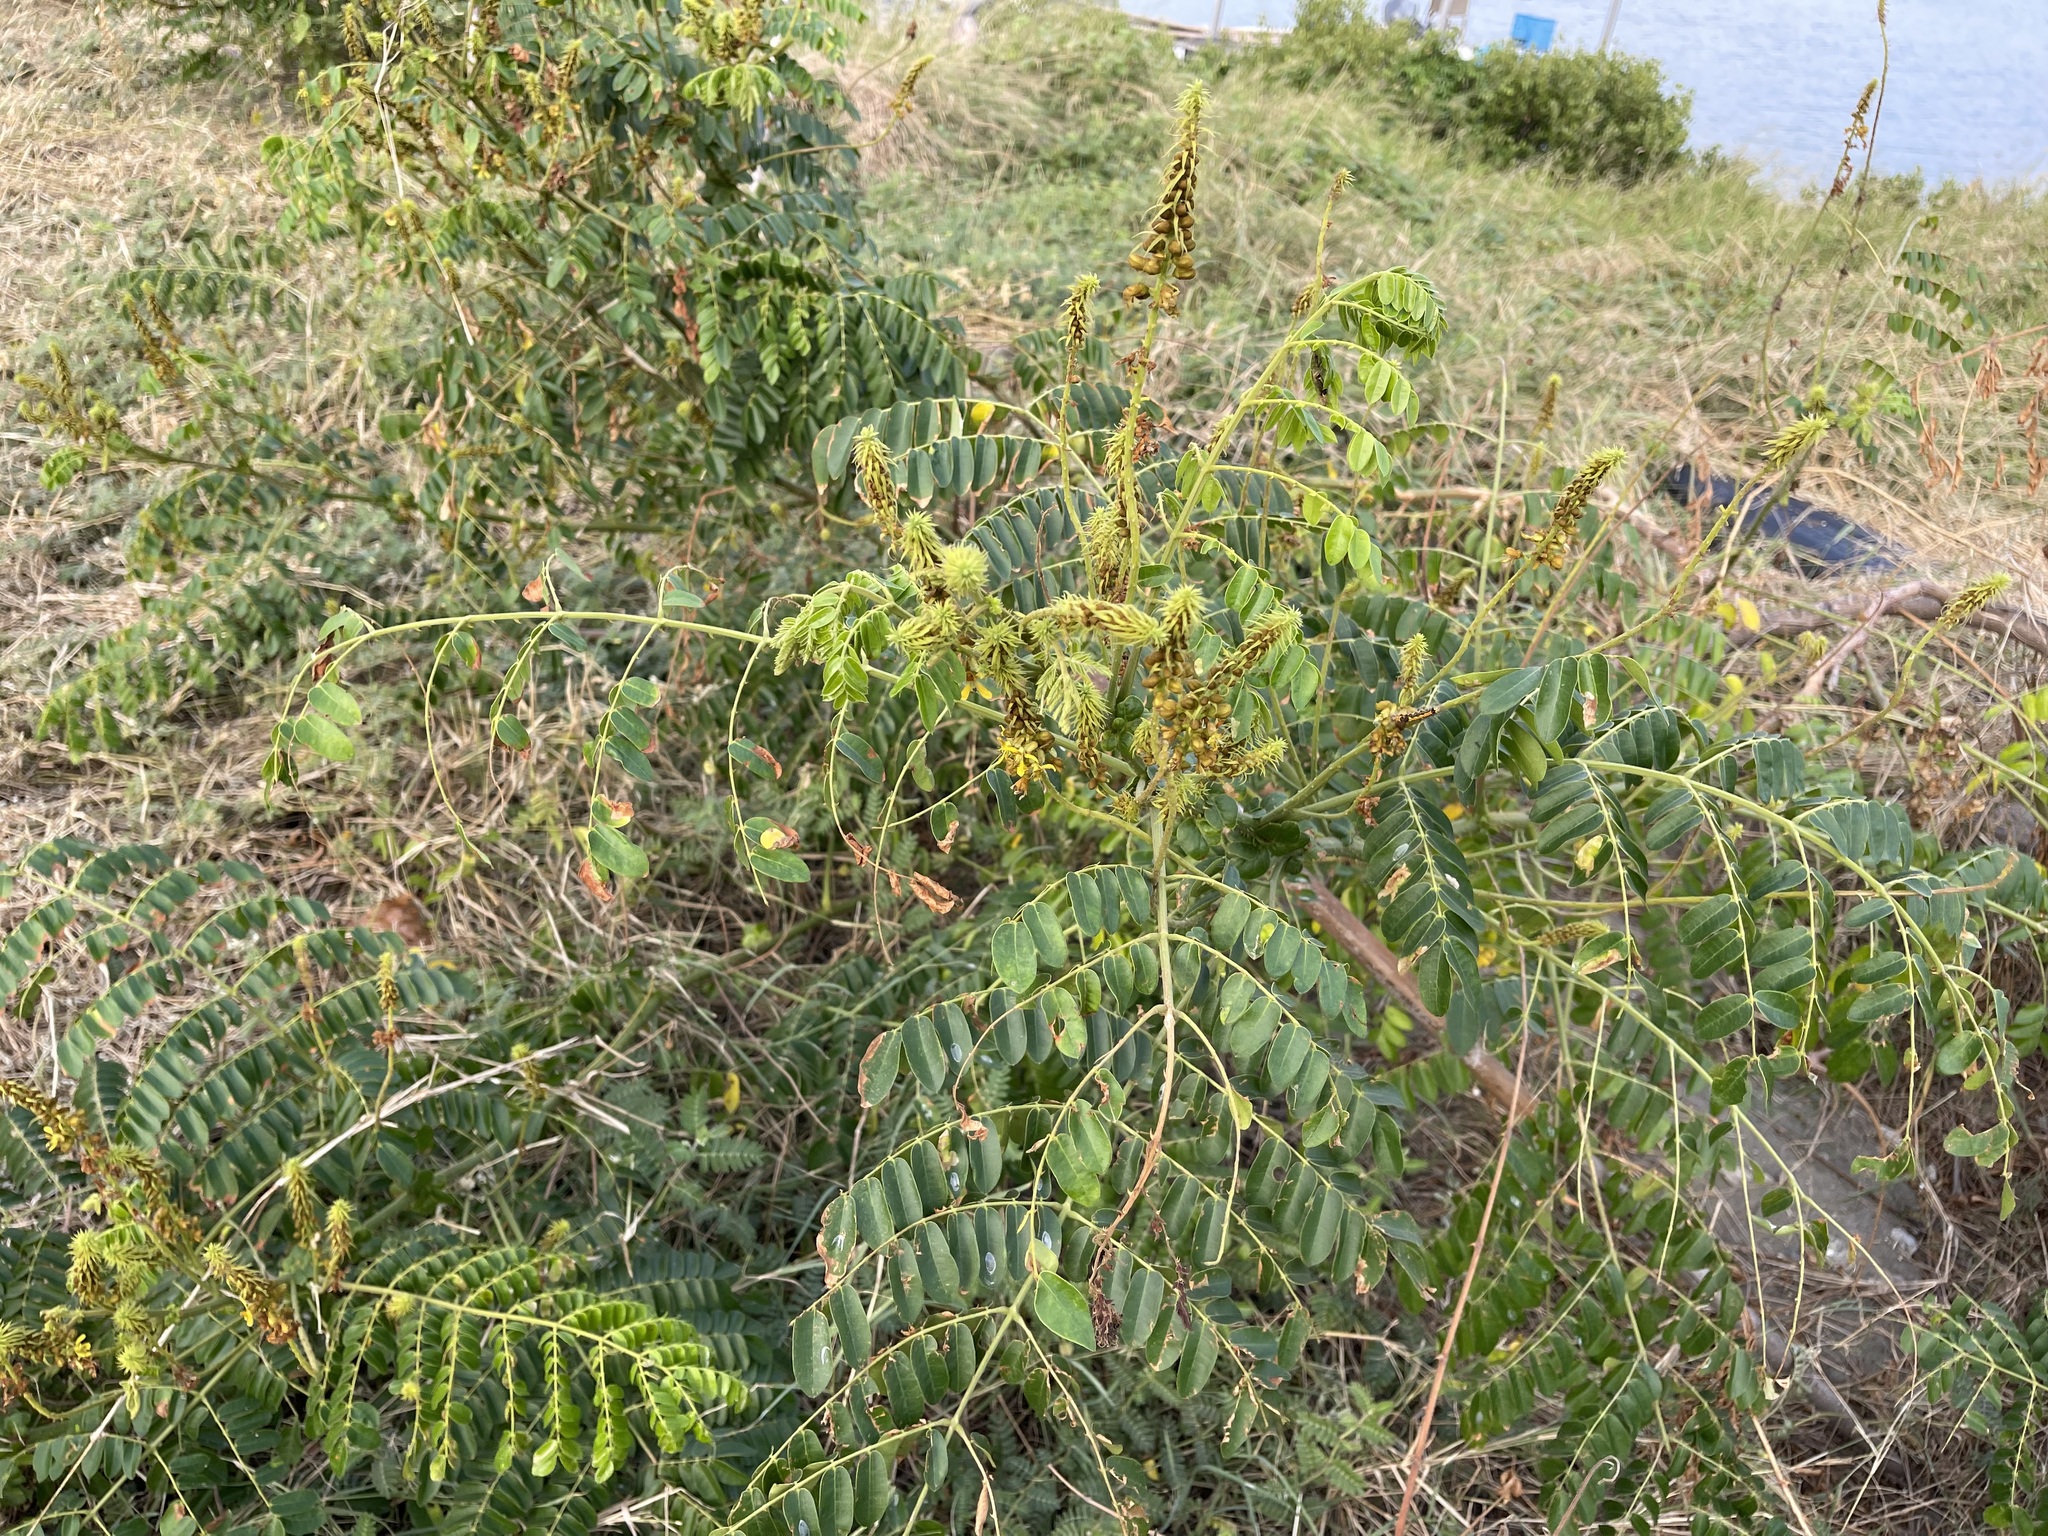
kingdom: Plantae
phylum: Tracheophyta
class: Magnoliopsida
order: Fabales
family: Fabaceae
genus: Guilandina
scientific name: Guilandina bonduc
